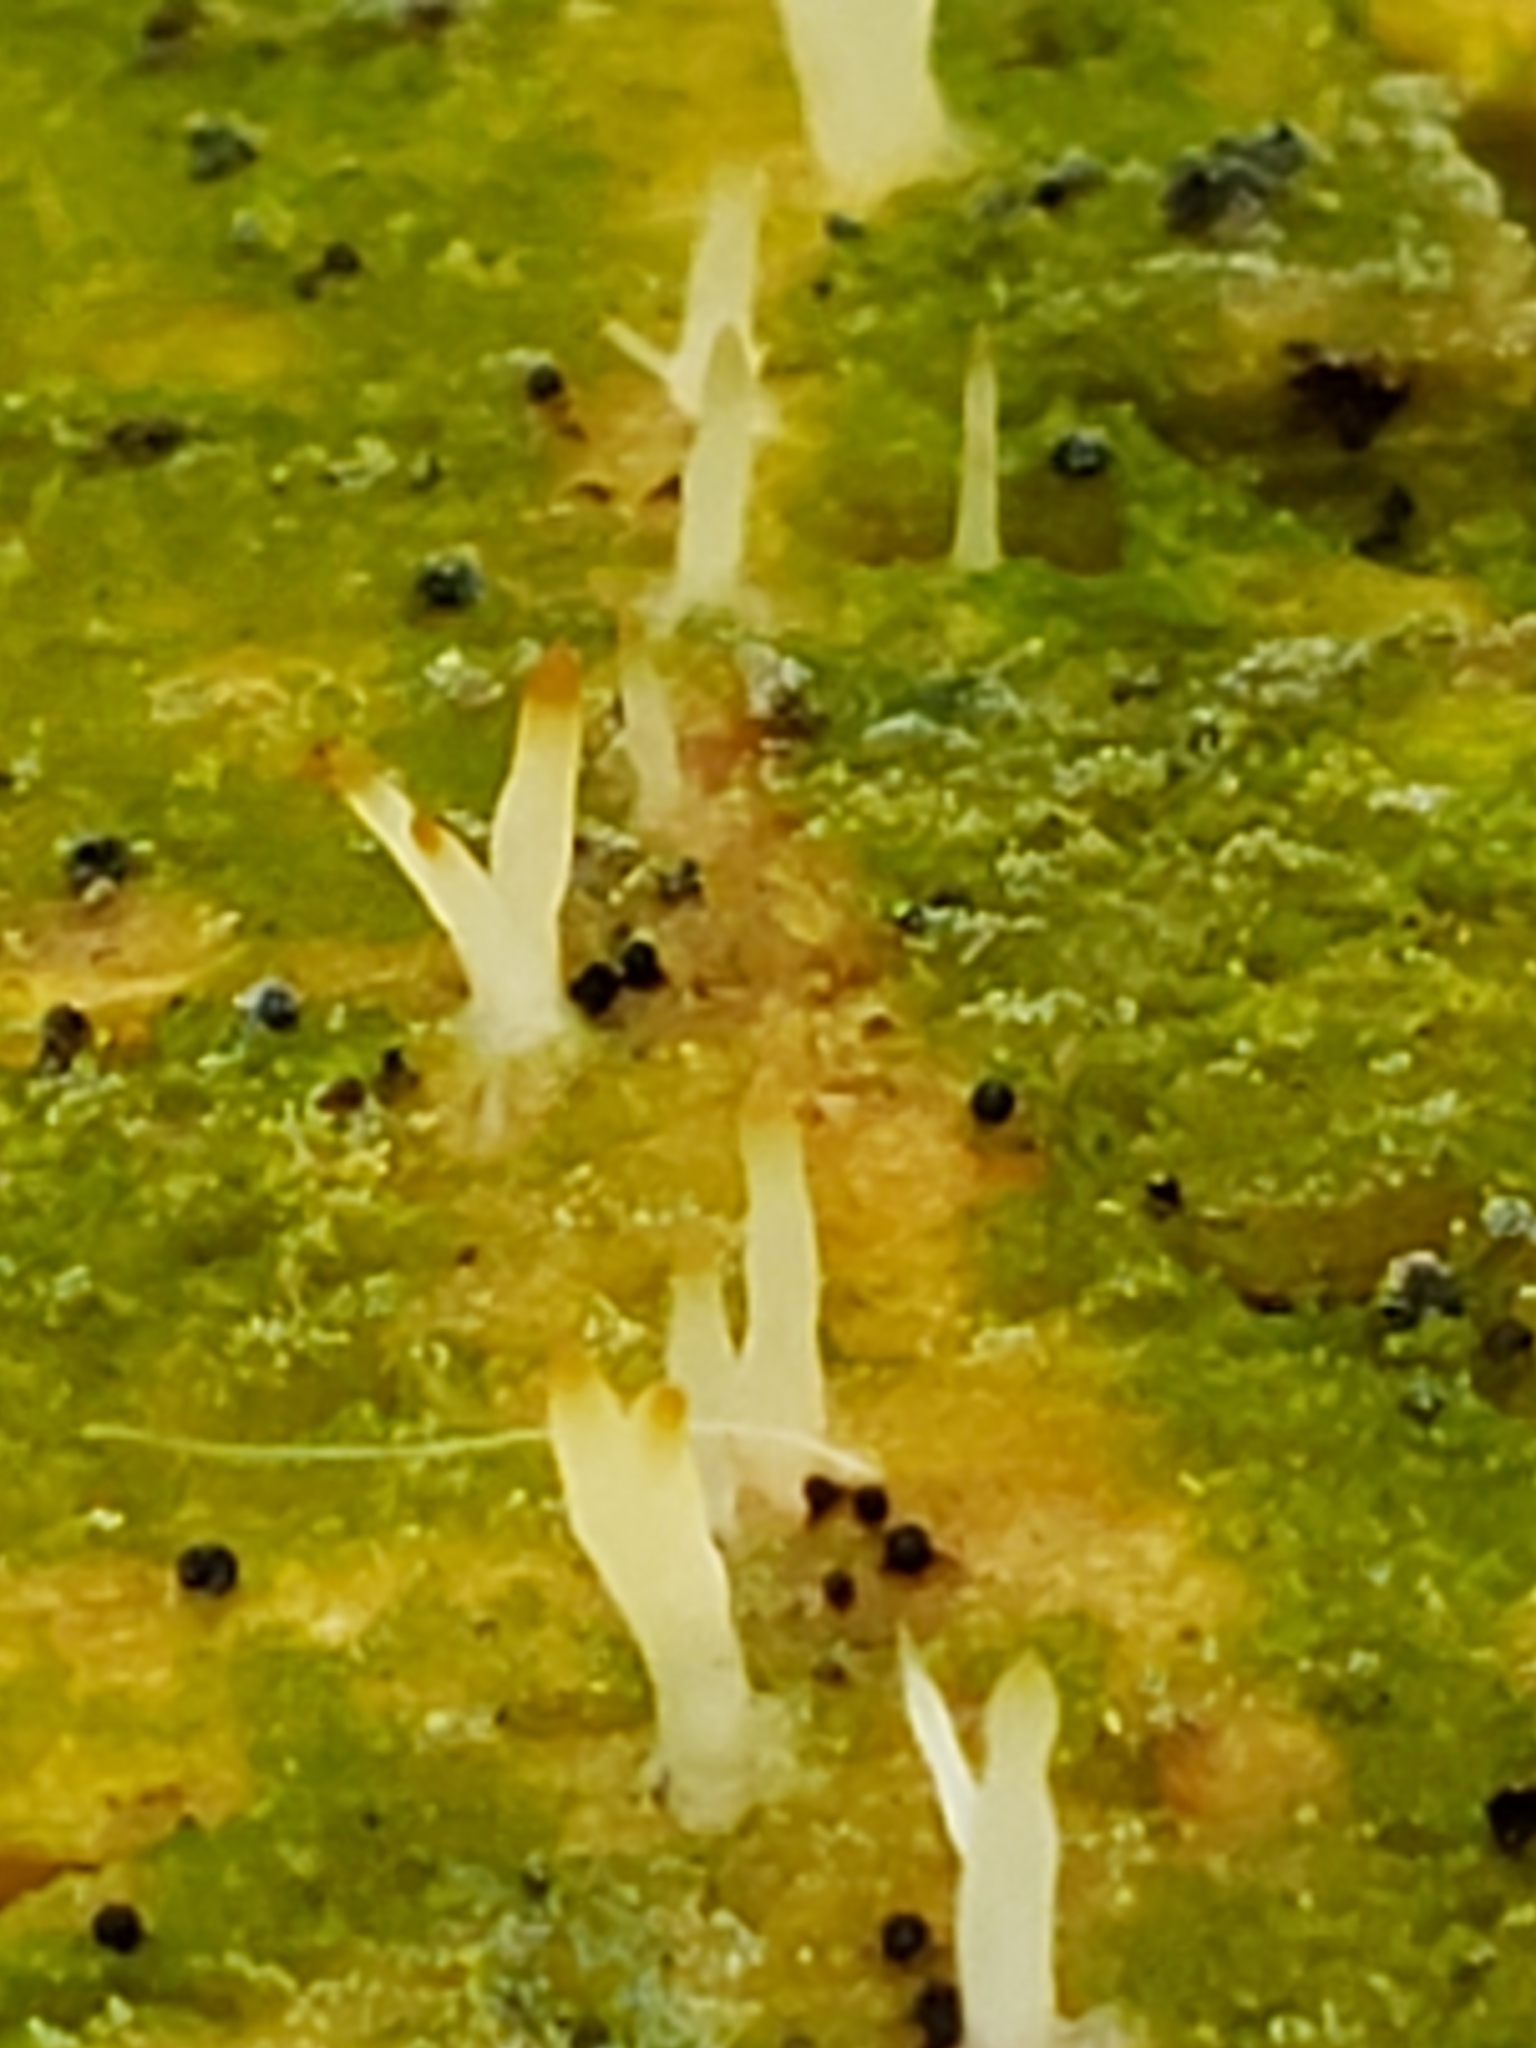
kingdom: Fungi
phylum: Basidiomycota
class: Agaricomycetes
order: Cantharellales
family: Hydnaceae
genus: Multiclavula
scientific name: Multiclavula mucida
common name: White green-algae coral
